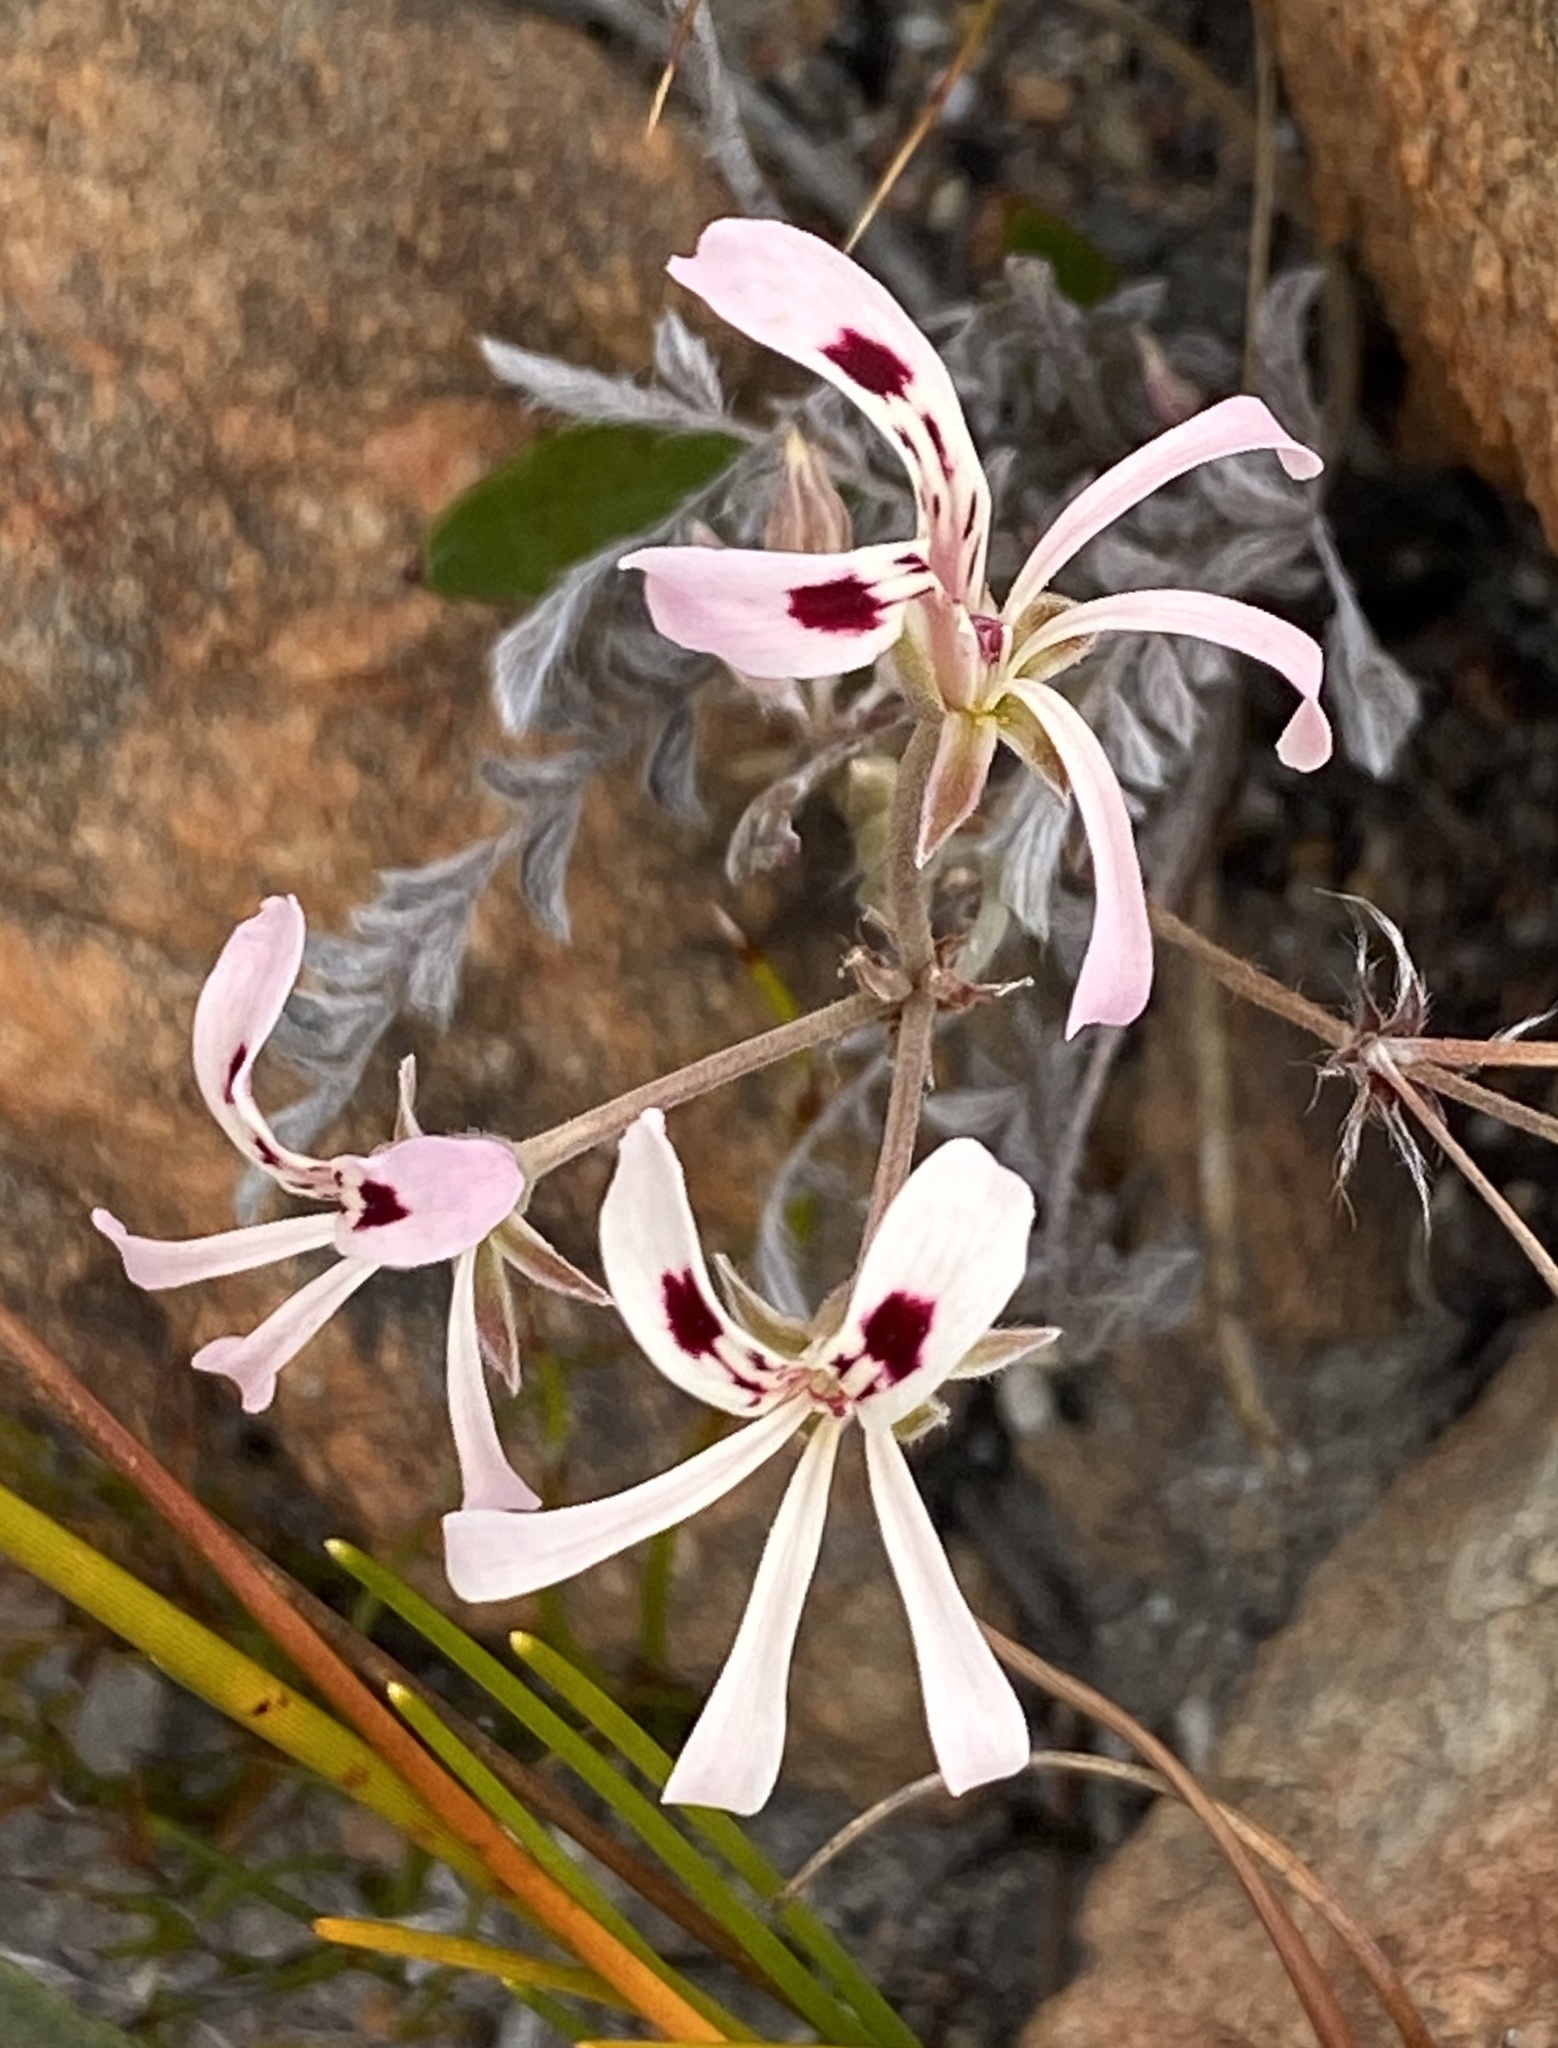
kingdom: Plantae
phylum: Tracheophyta
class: Magnoliopsida
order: Geraniales
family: Geraniaceae
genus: Pelargonium
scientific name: Pelargonium pinnatum
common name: Pinnated pelargonium
